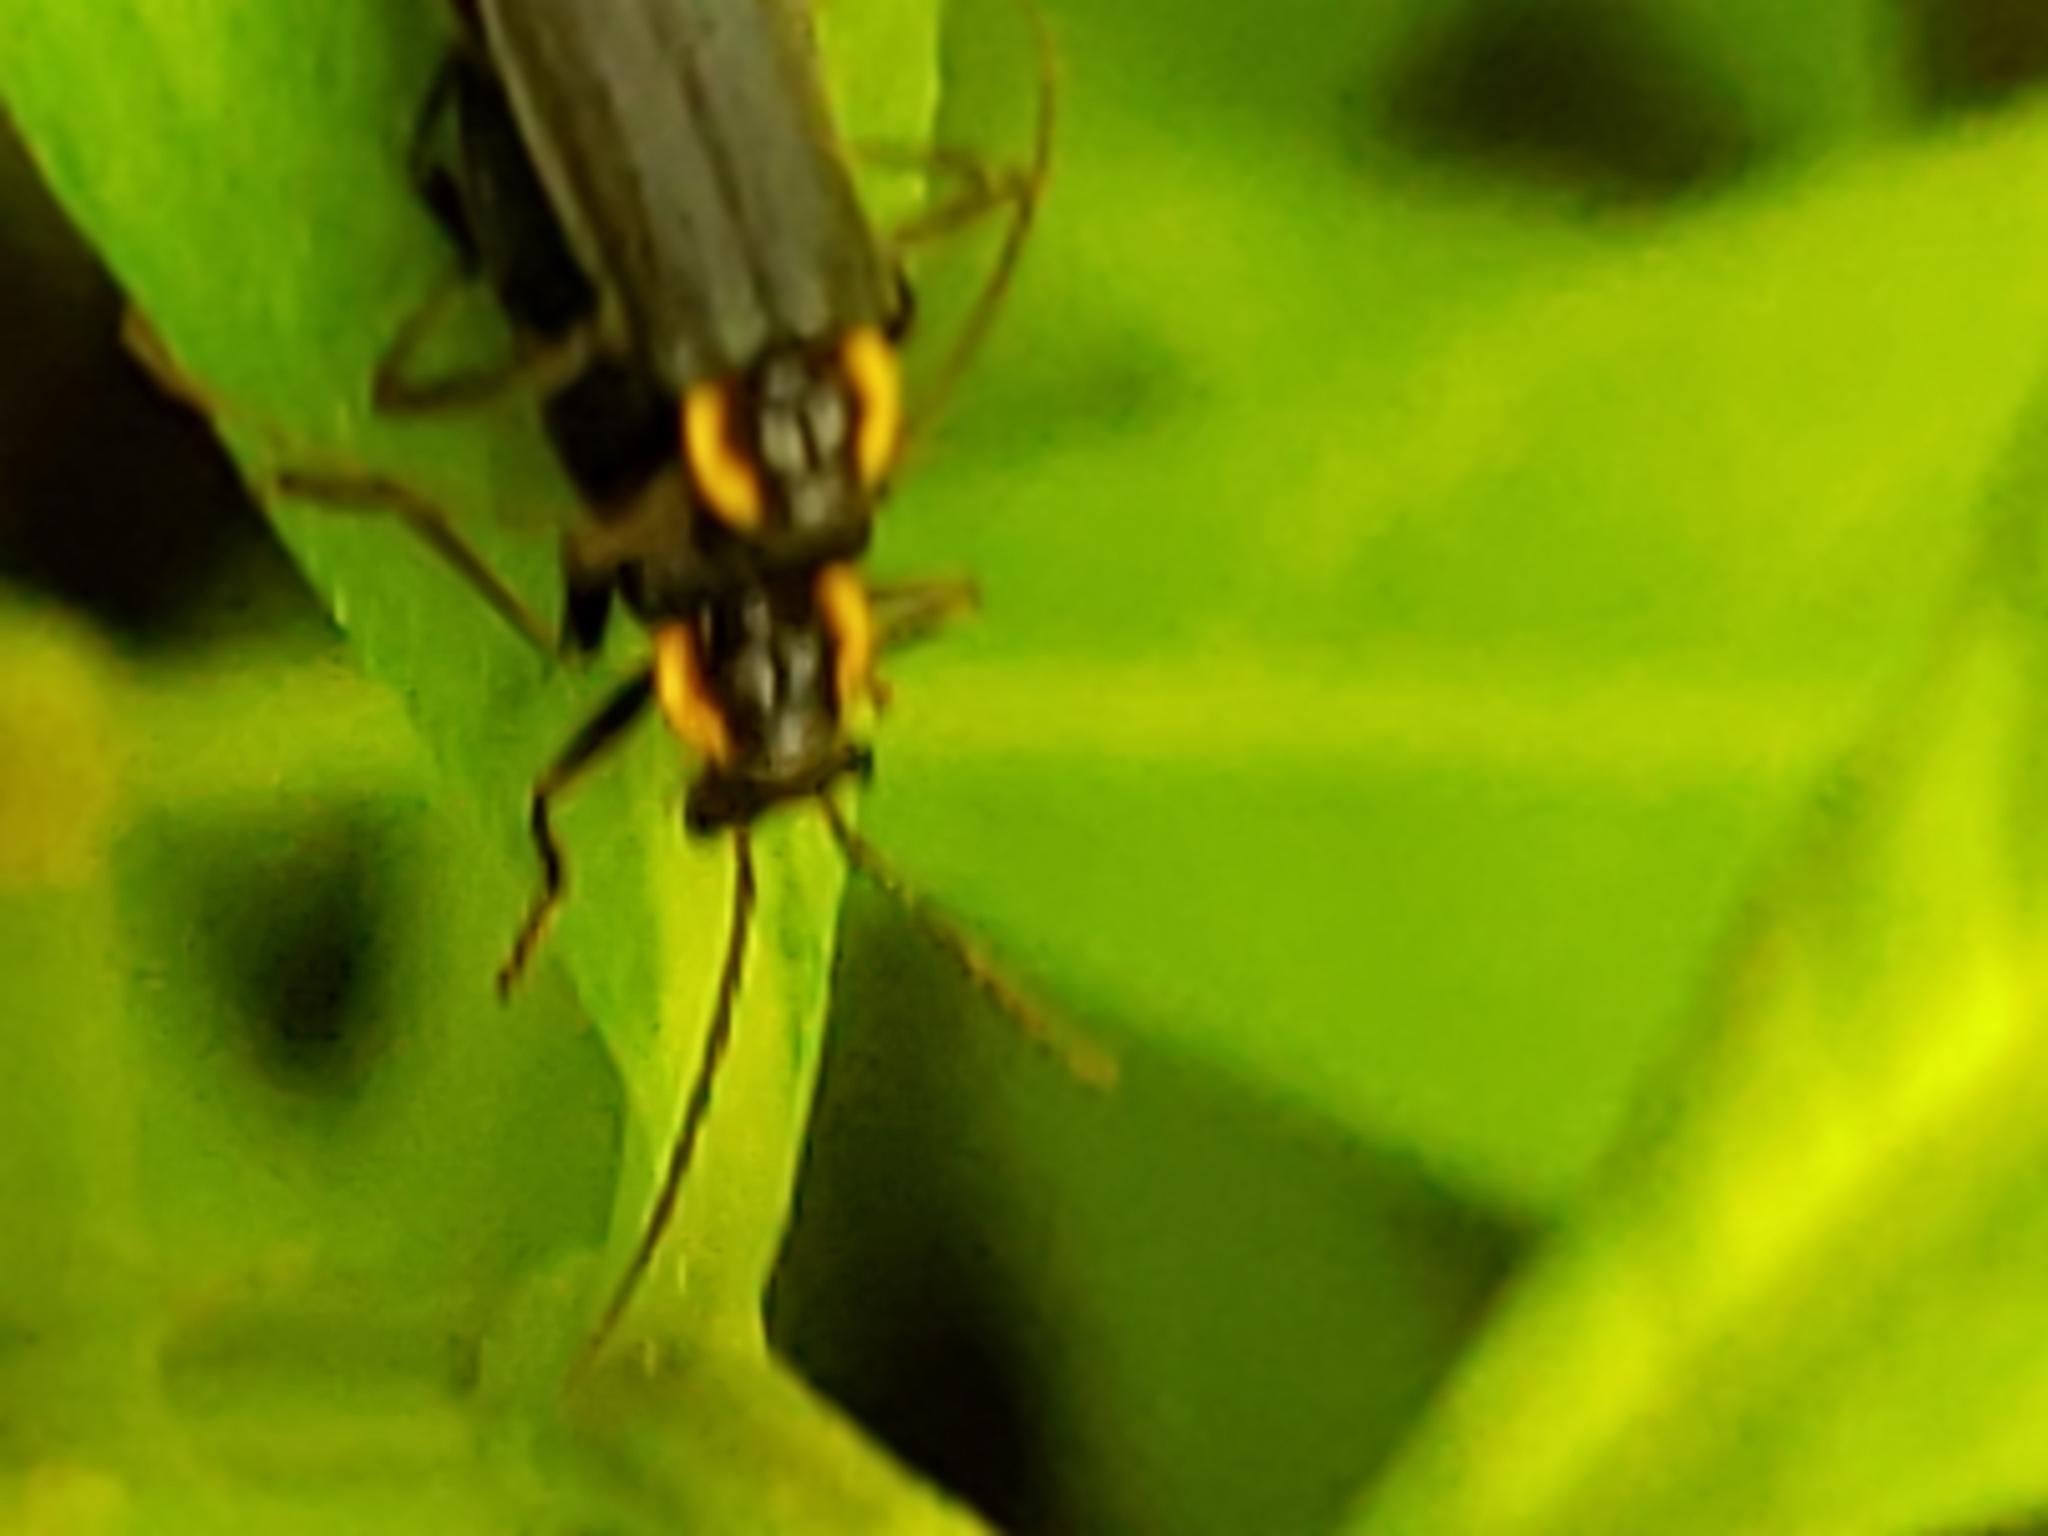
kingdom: Animalia
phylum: Arthropoda
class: Insecta
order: Coleoptera
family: Cantharidae
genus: Podabrus
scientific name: Podabrus rugosulus
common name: Wrinkled soldier beetle
